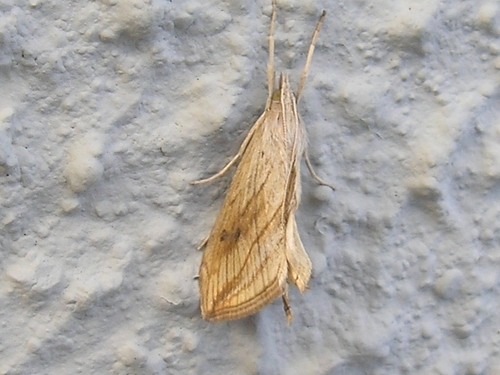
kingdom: Animalia
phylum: Arthropoda
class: Insecta
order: Lepidoptera
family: Crambidae
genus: Evergestis
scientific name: Evergestis forficalis
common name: Garden pebble
